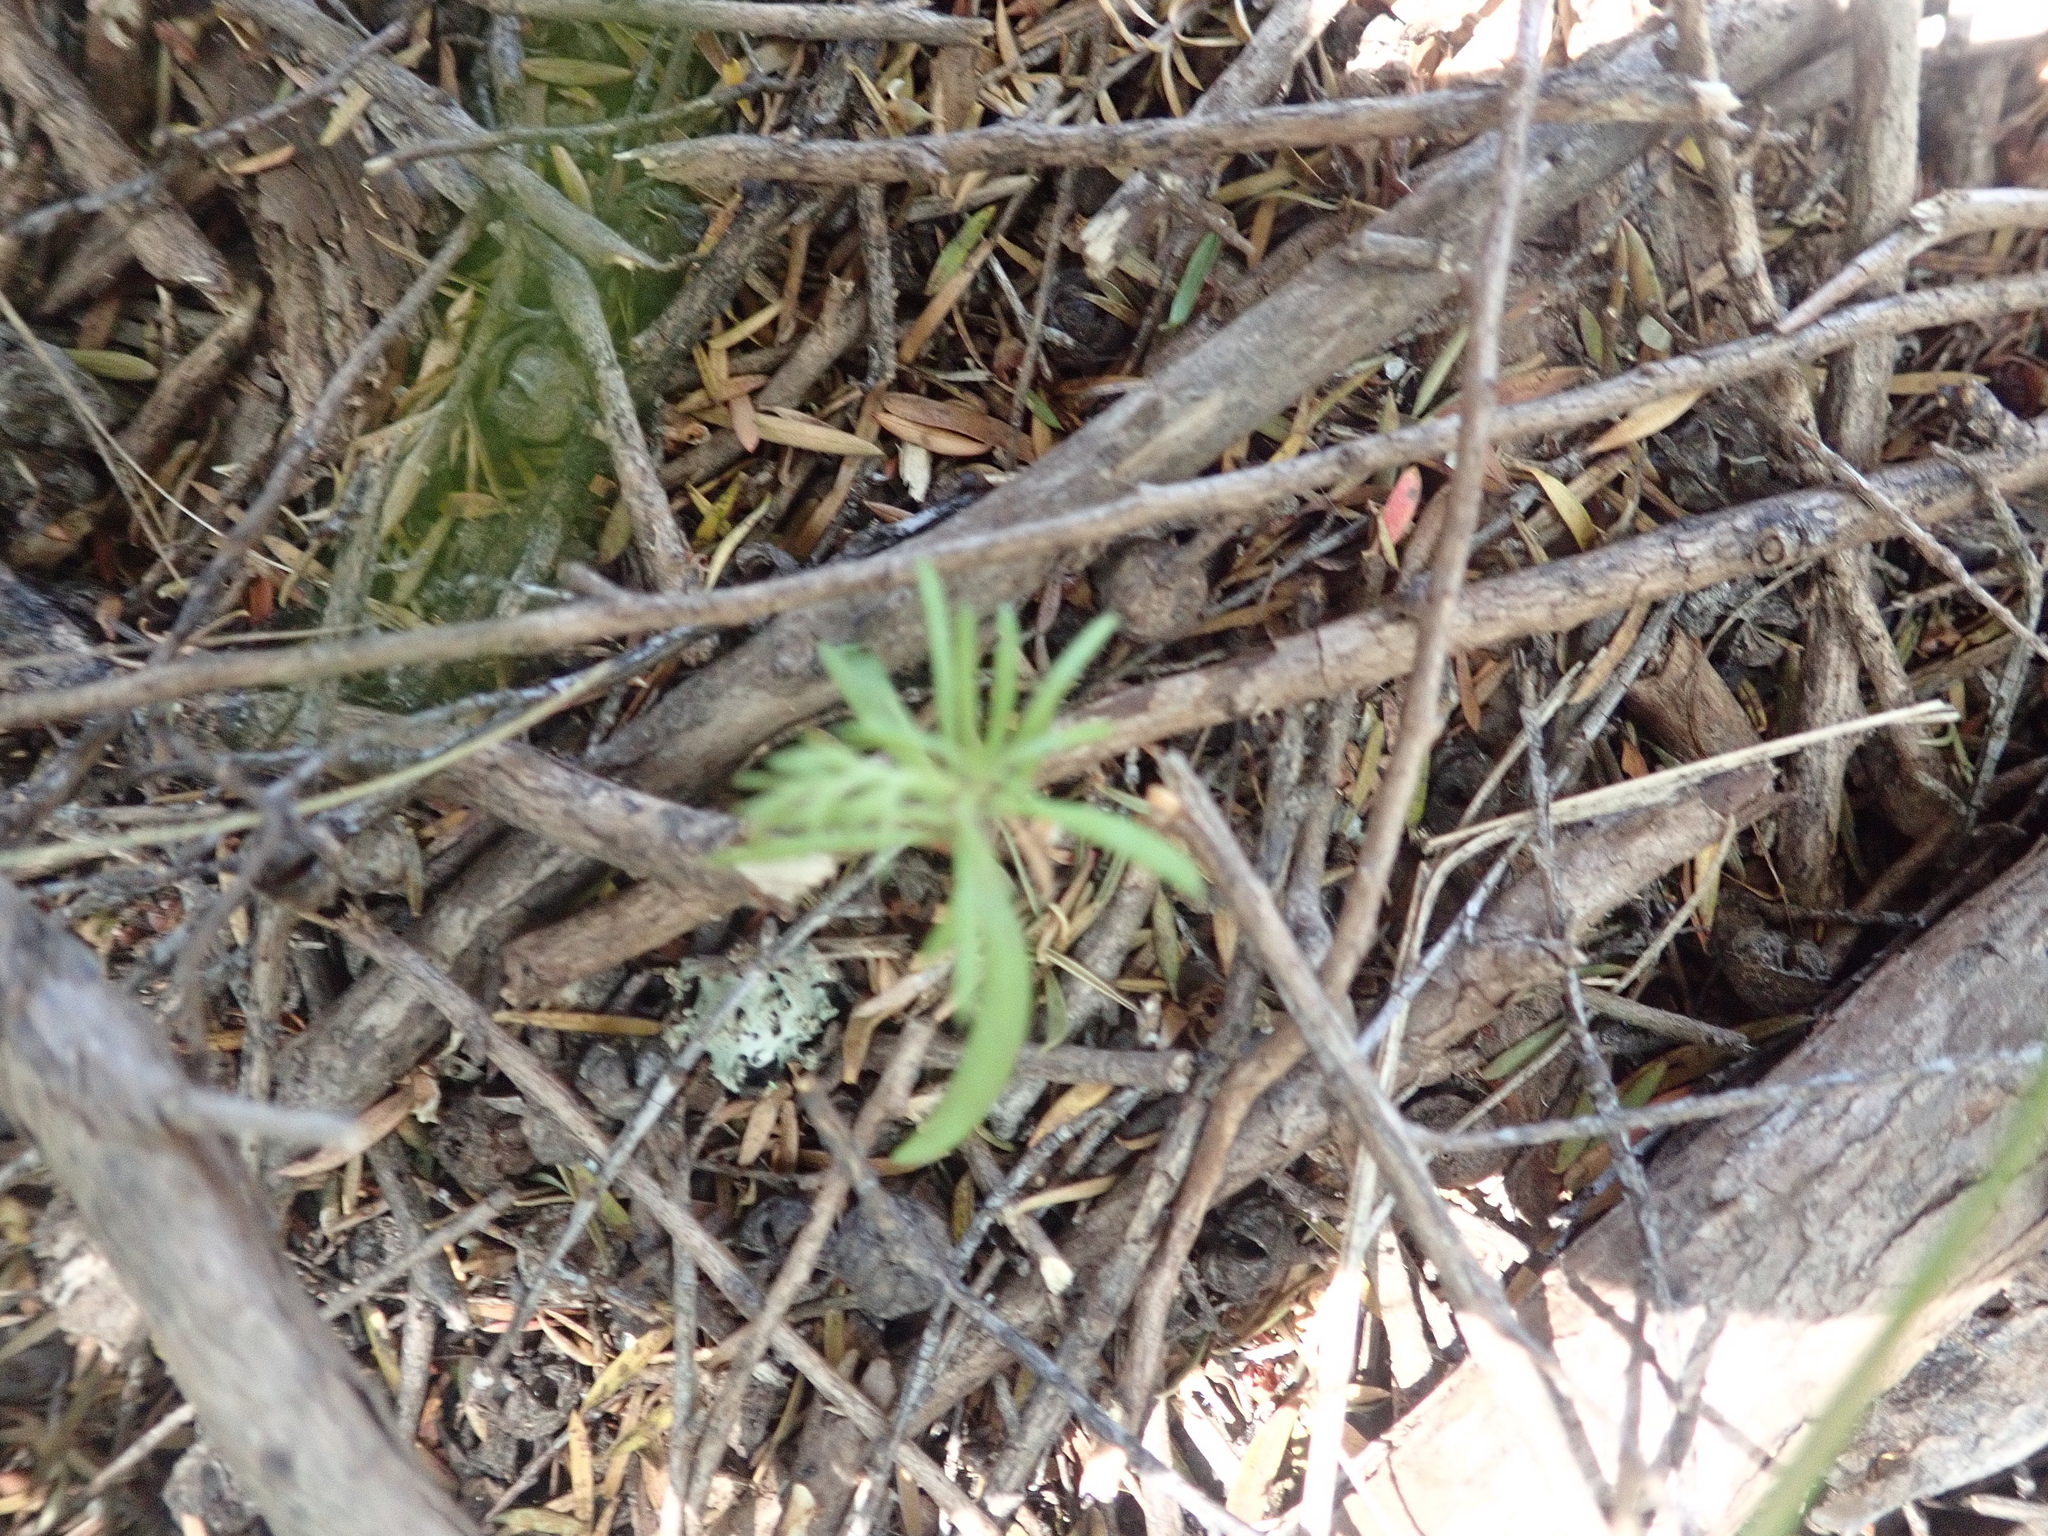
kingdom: Plantae
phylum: Tracheophyta
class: Pinopsida
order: Pinales
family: Phyllocladaceae
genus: Phyllocladus
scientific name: Phyllocladus trichomanoides
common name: Celery pine
